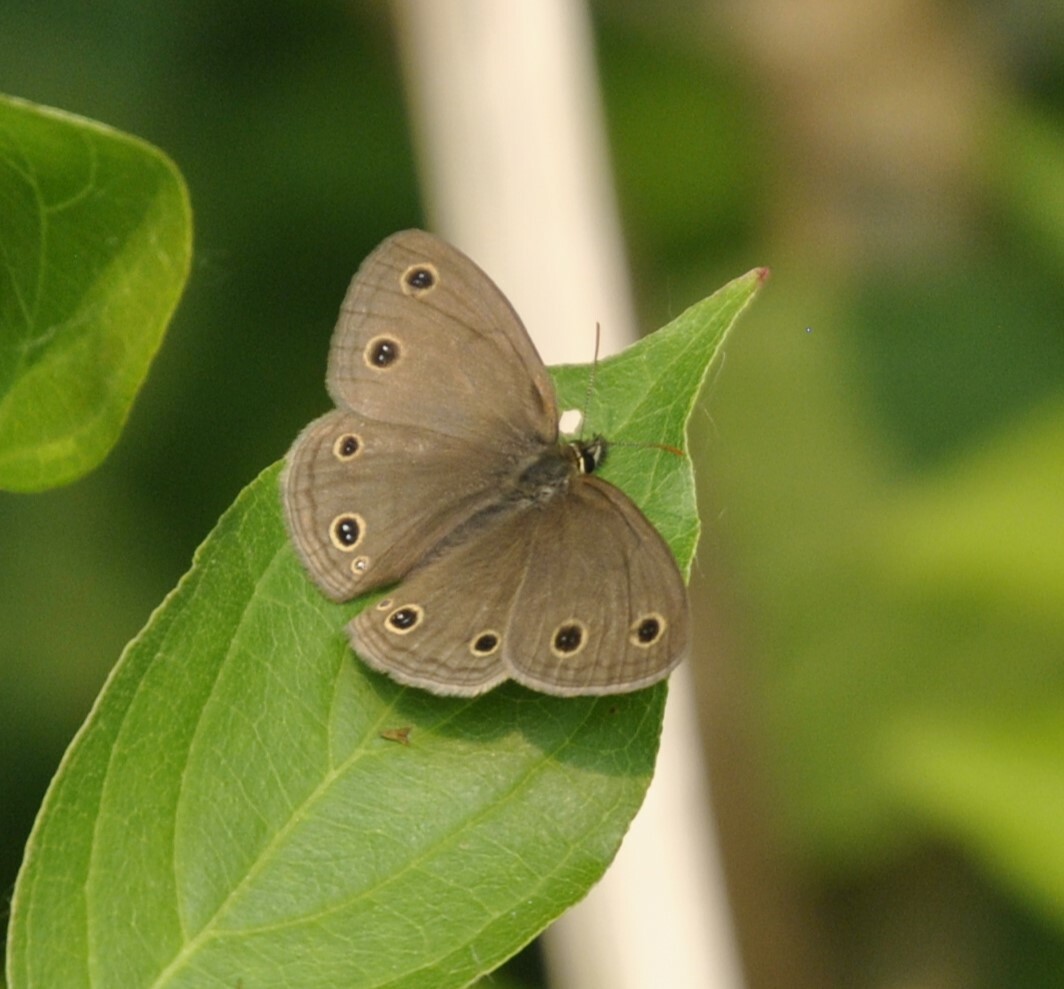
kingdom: Animalia
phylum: Arthropoda
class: Insecta
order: Lepidoptera
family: Nymphalidae
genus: Euptychia
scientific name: Euptychia cymela
